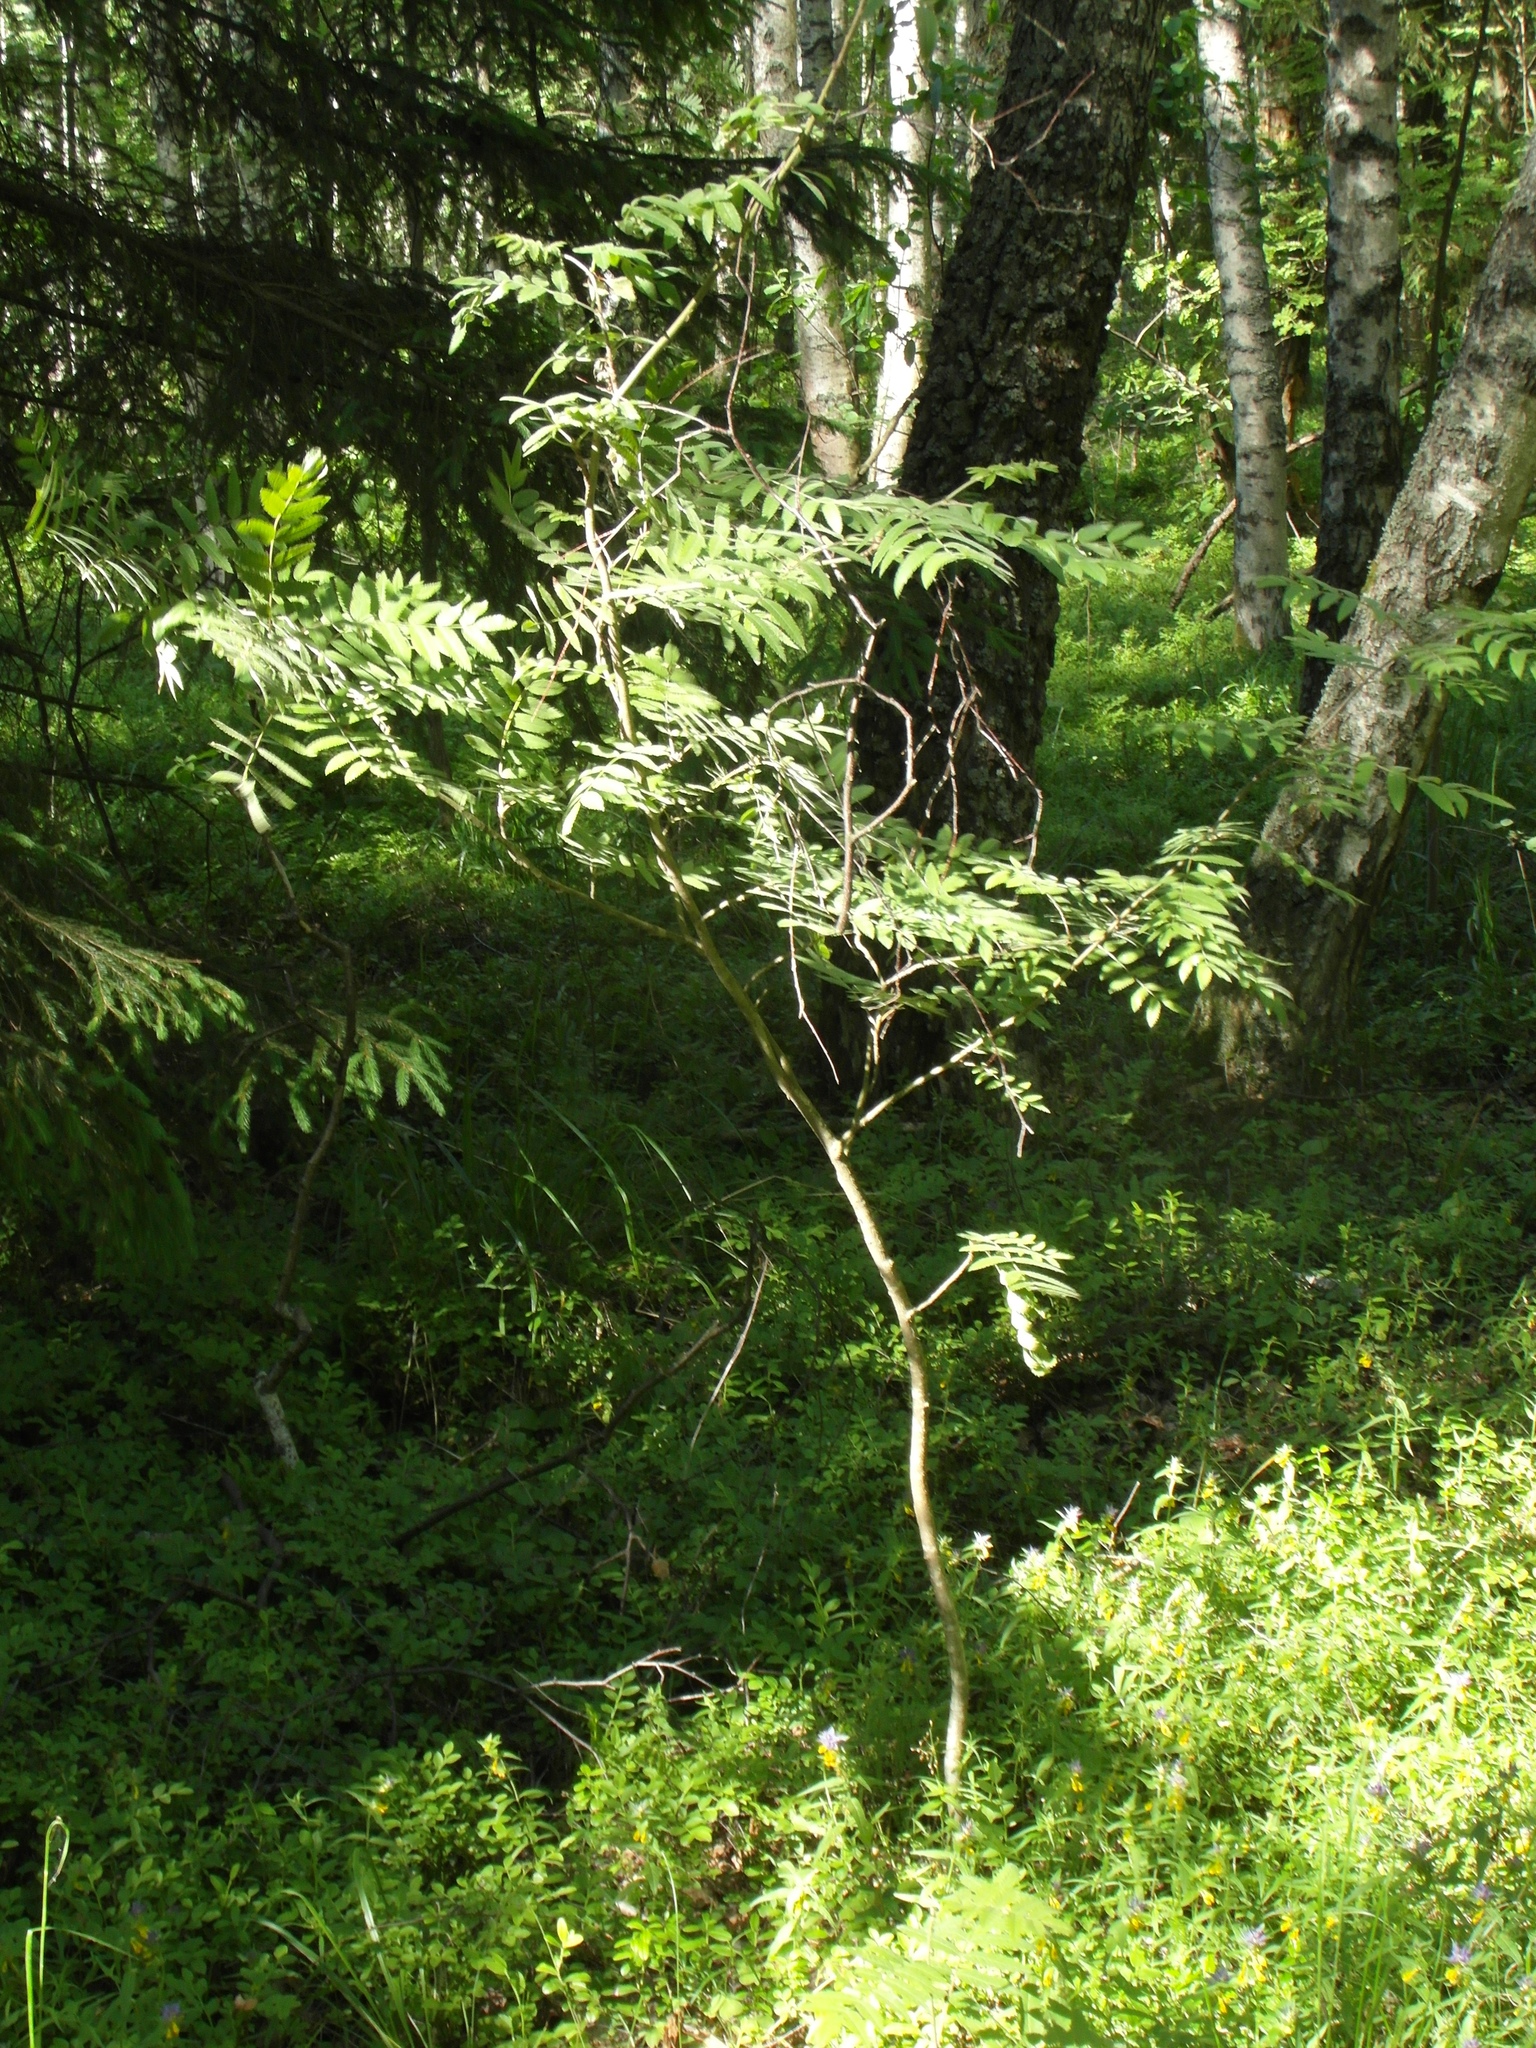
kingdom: Plantae
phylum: Tracheophyta
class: Magnoliopsida
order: Rosales
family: Rosaceae
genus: Sorbus
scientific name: Sorbus aucuparia
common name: Rowan
